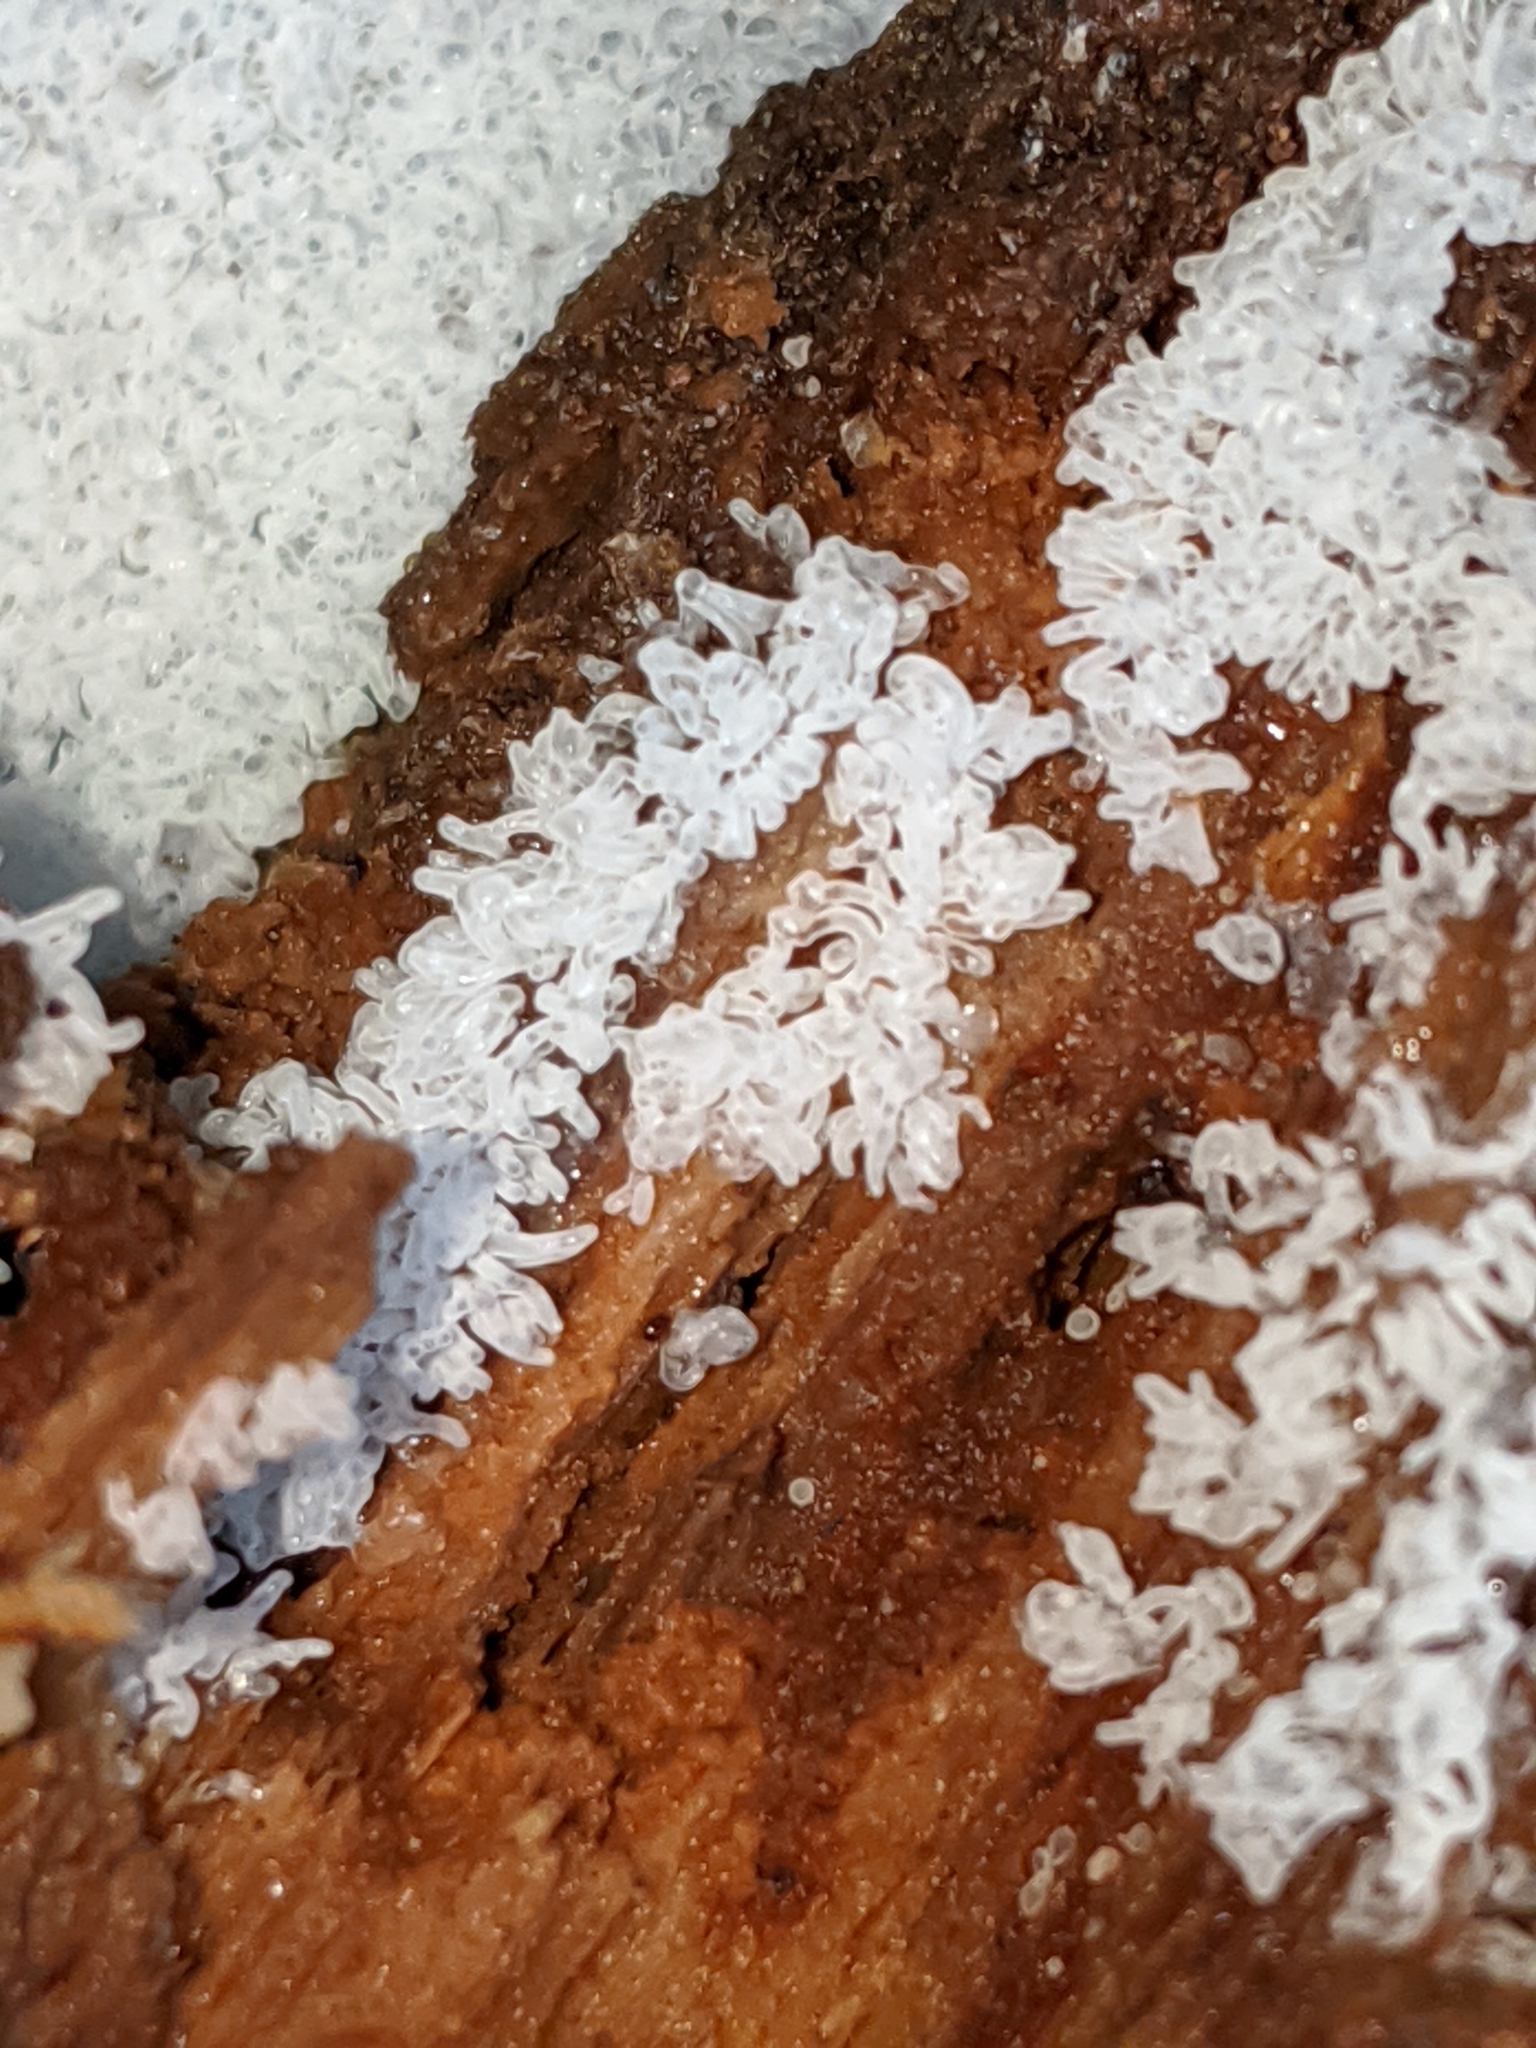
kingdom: Protozoa
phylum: Mycetozoa
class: Protosteliomycetes
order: Ceratiomyxales
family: Ceratiomyxaceae
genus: Ceratiomyxa
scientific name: Ceratiomyxa fruticulosa
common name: Honeycomb coral slime mold
